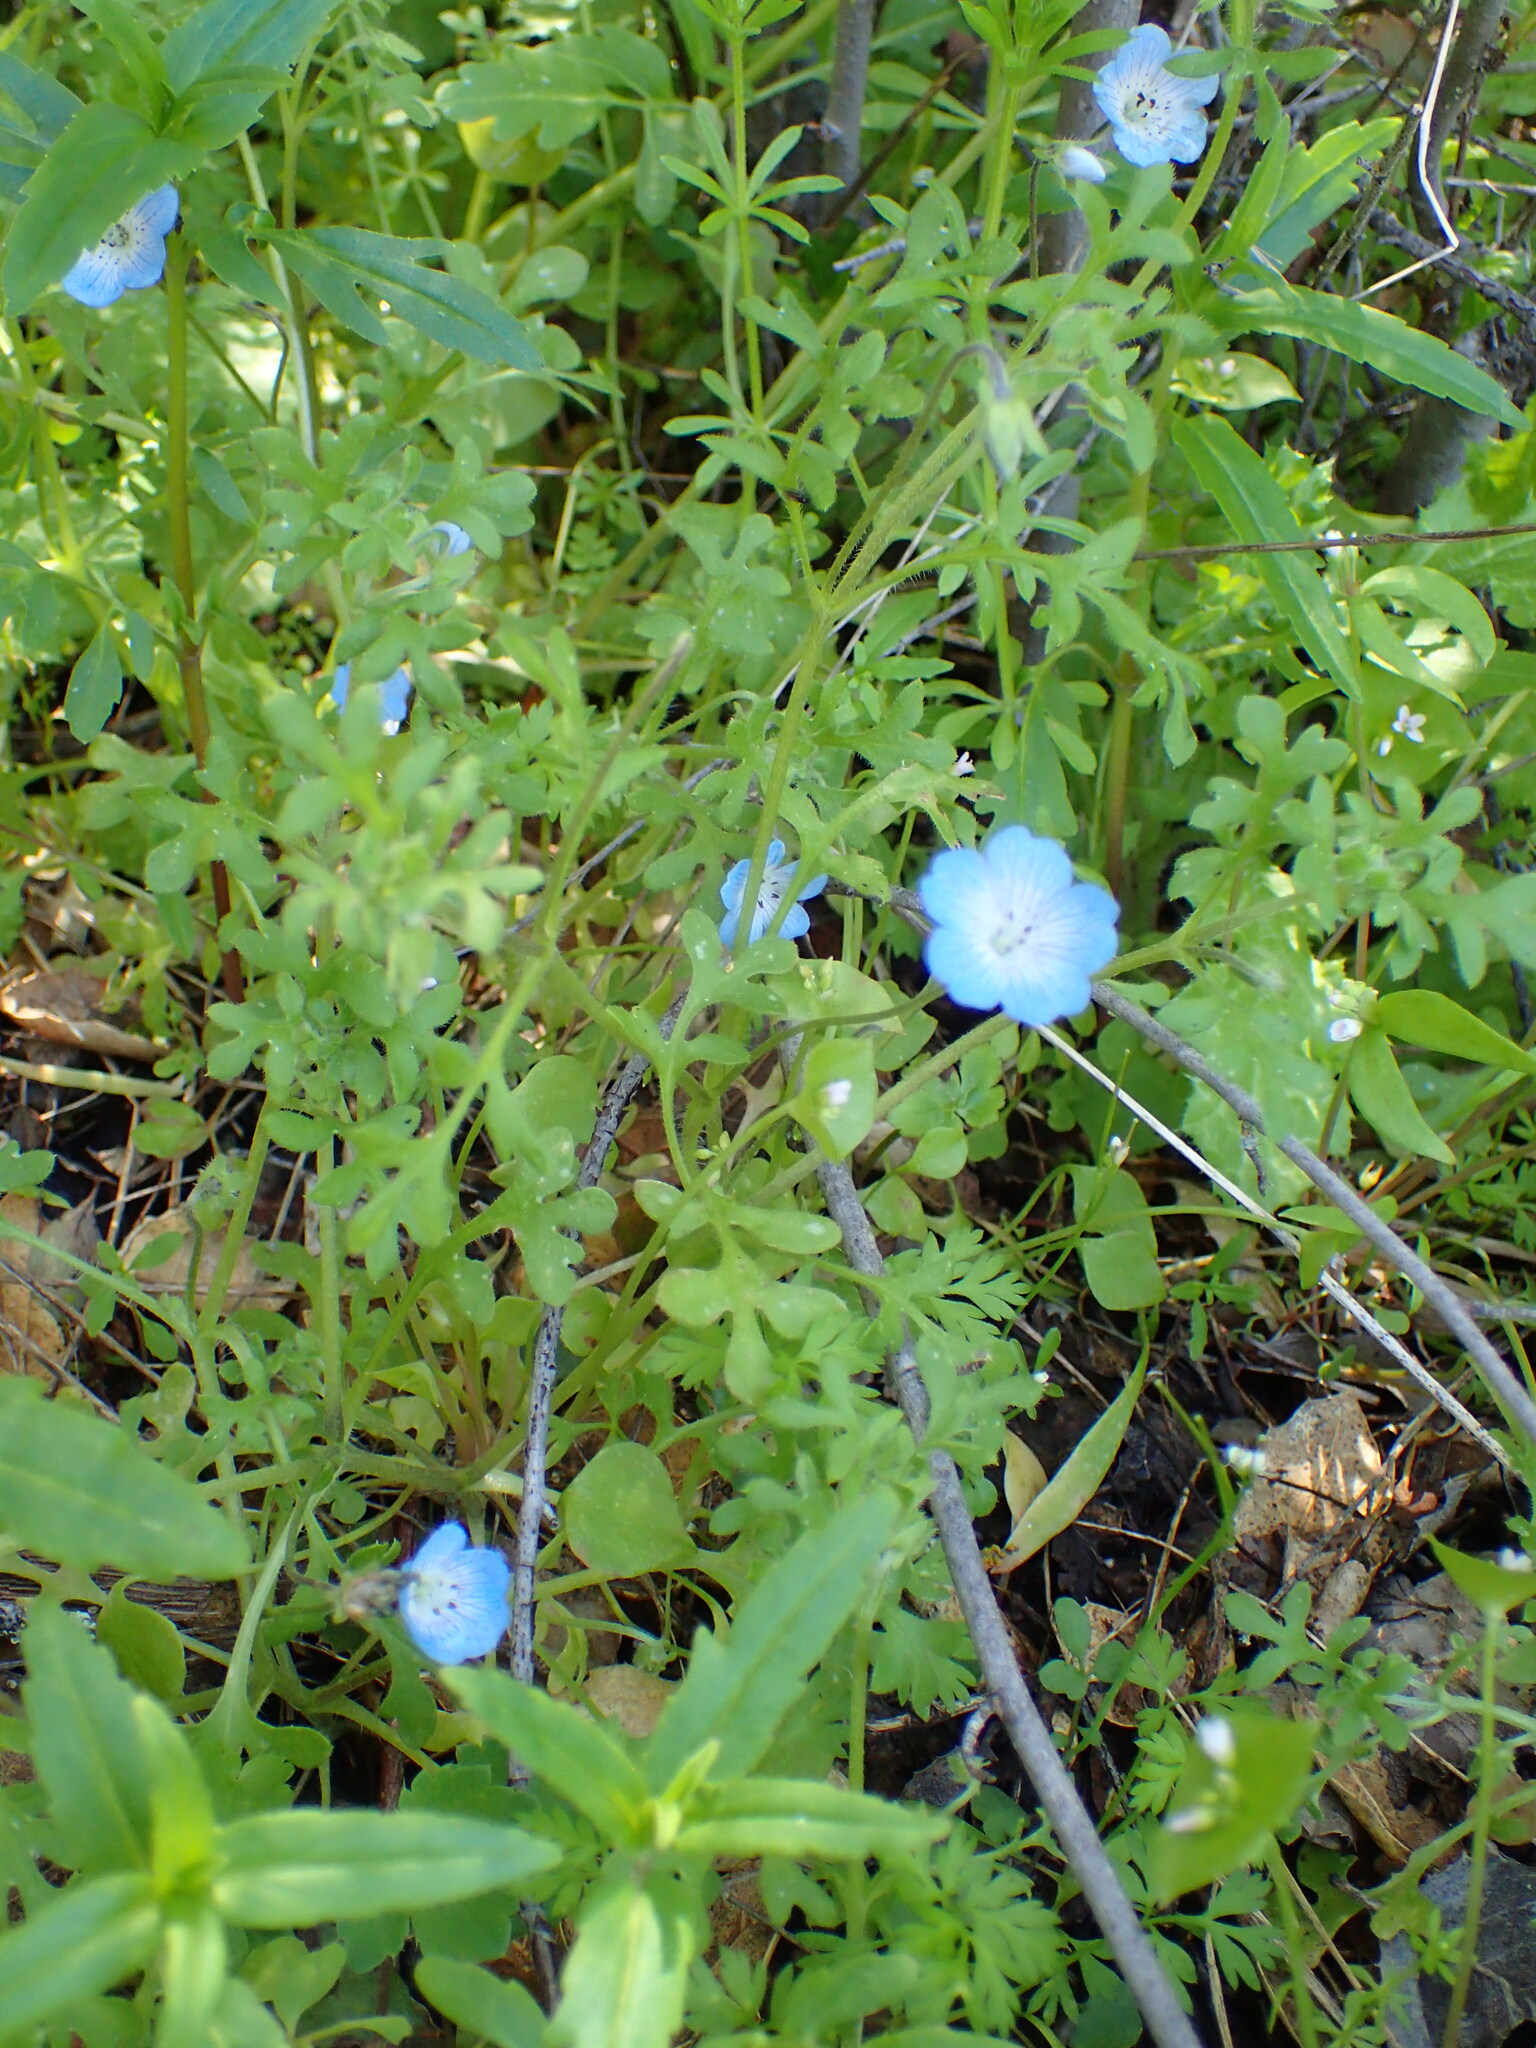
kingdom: Plantae
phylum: Tracheophyta
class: Magnoliopsida
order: Boraginales
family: Hydrophyllaceae
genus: Nemophila
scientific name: Nemophila menziesii
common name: Baby's-blue-eyes
